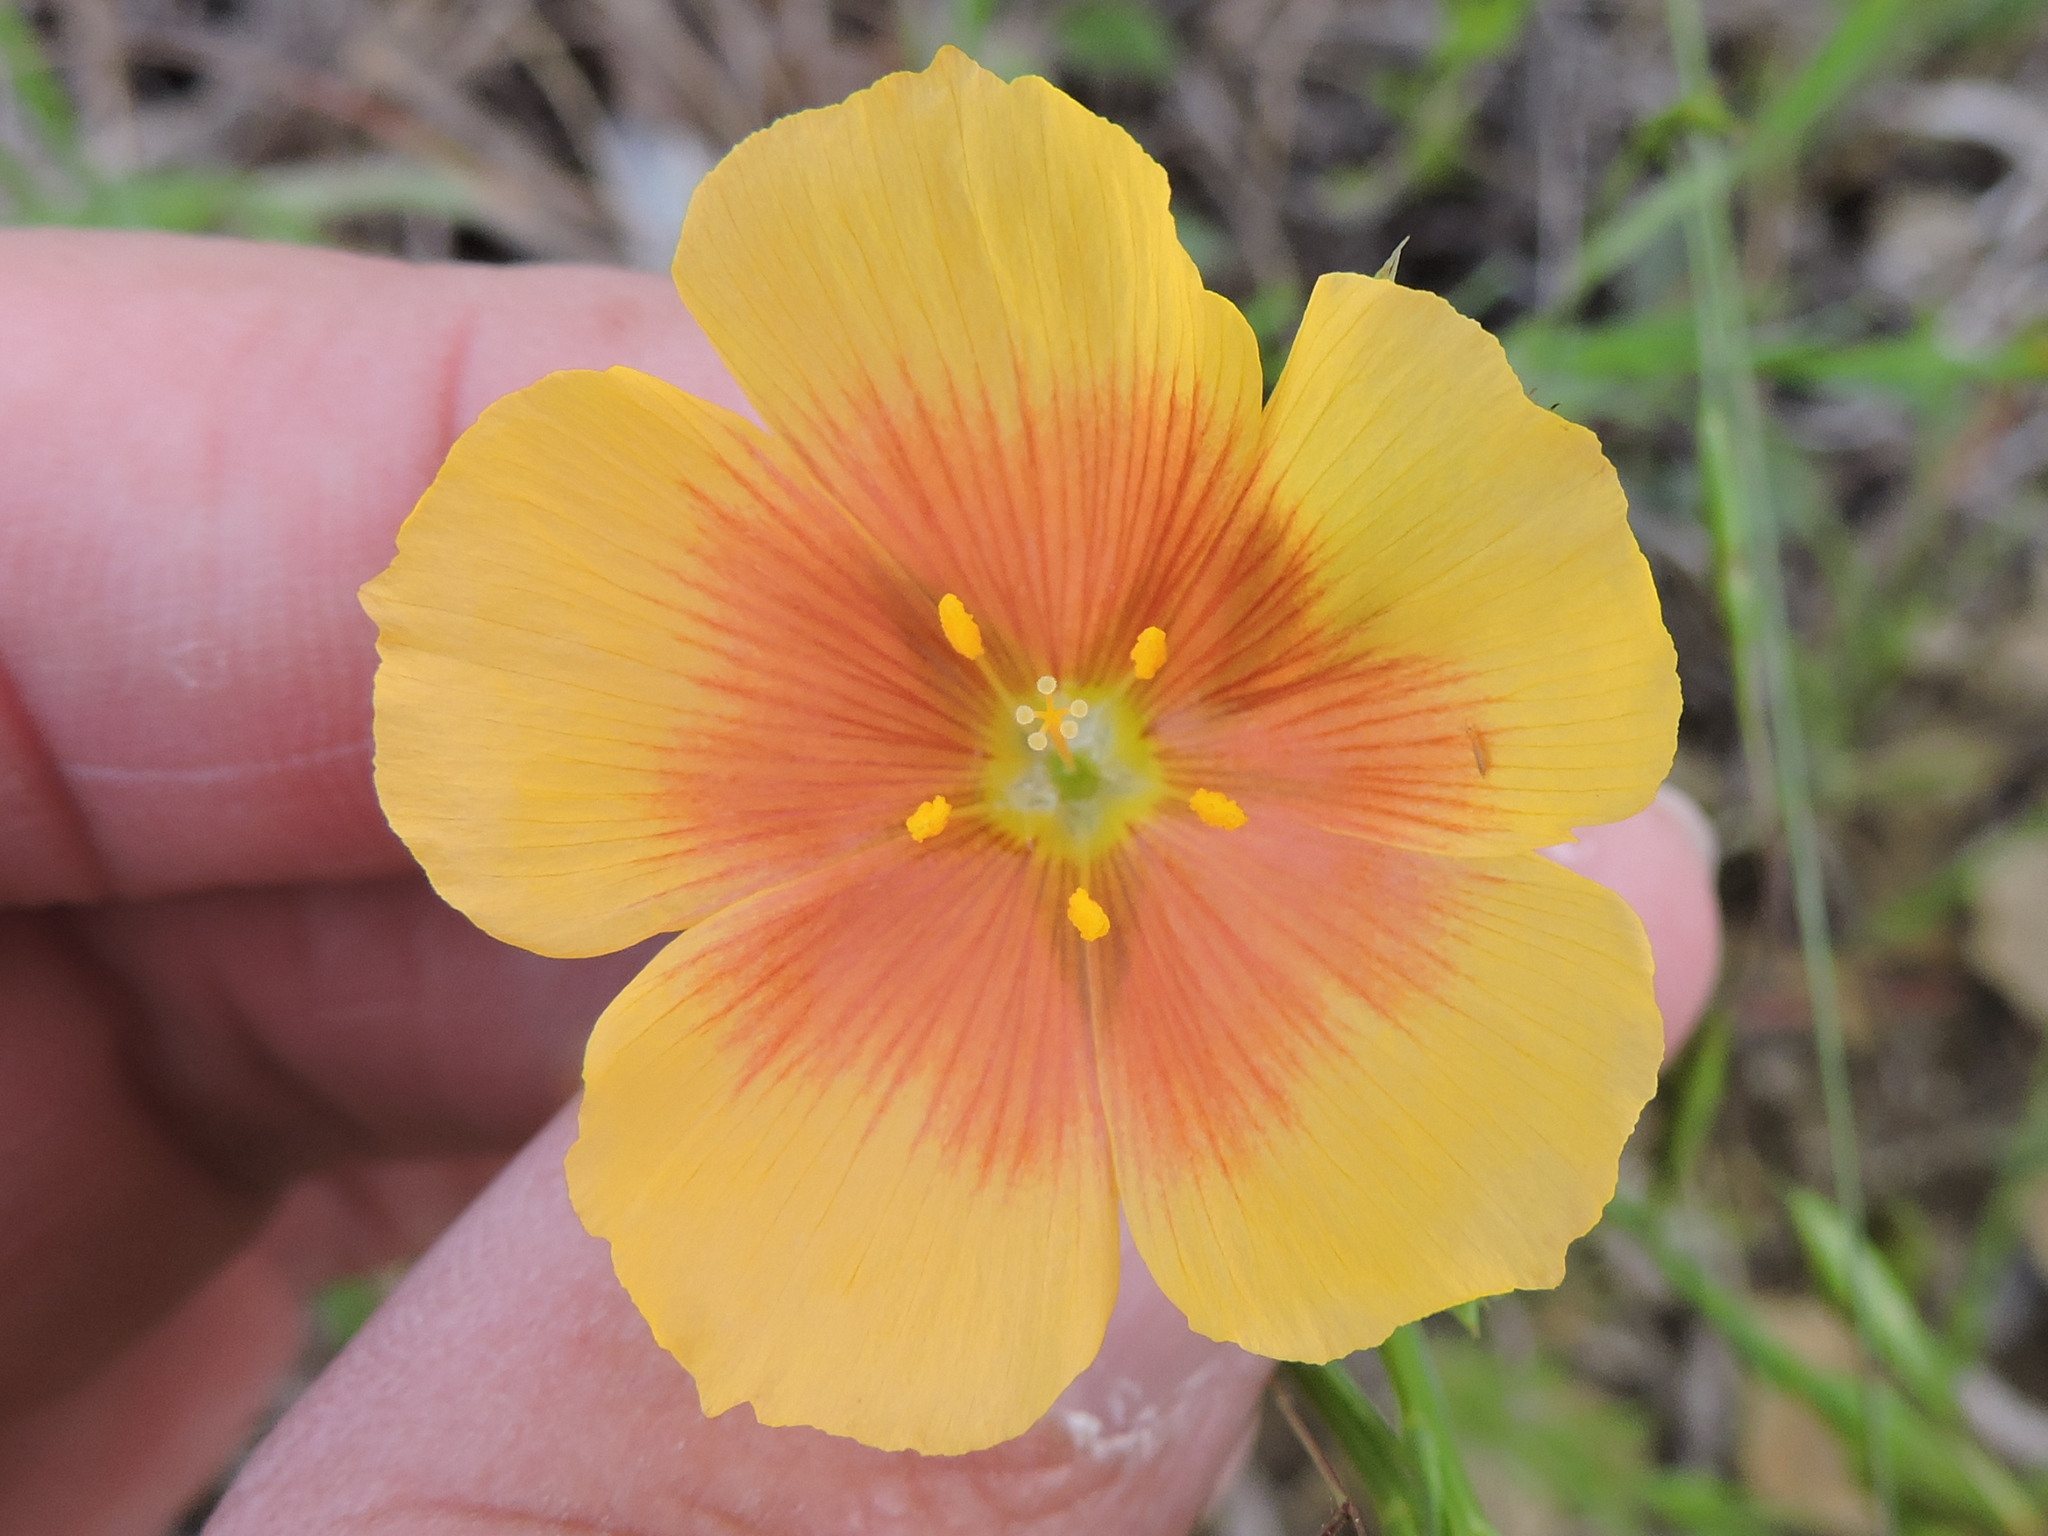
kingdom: Plantae
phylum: Tracheophyta
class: Magnoliopsida
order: Malpighiales
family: Linaceae
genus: Linum
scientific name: Linum rigidum
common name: Stiff-stem flax
